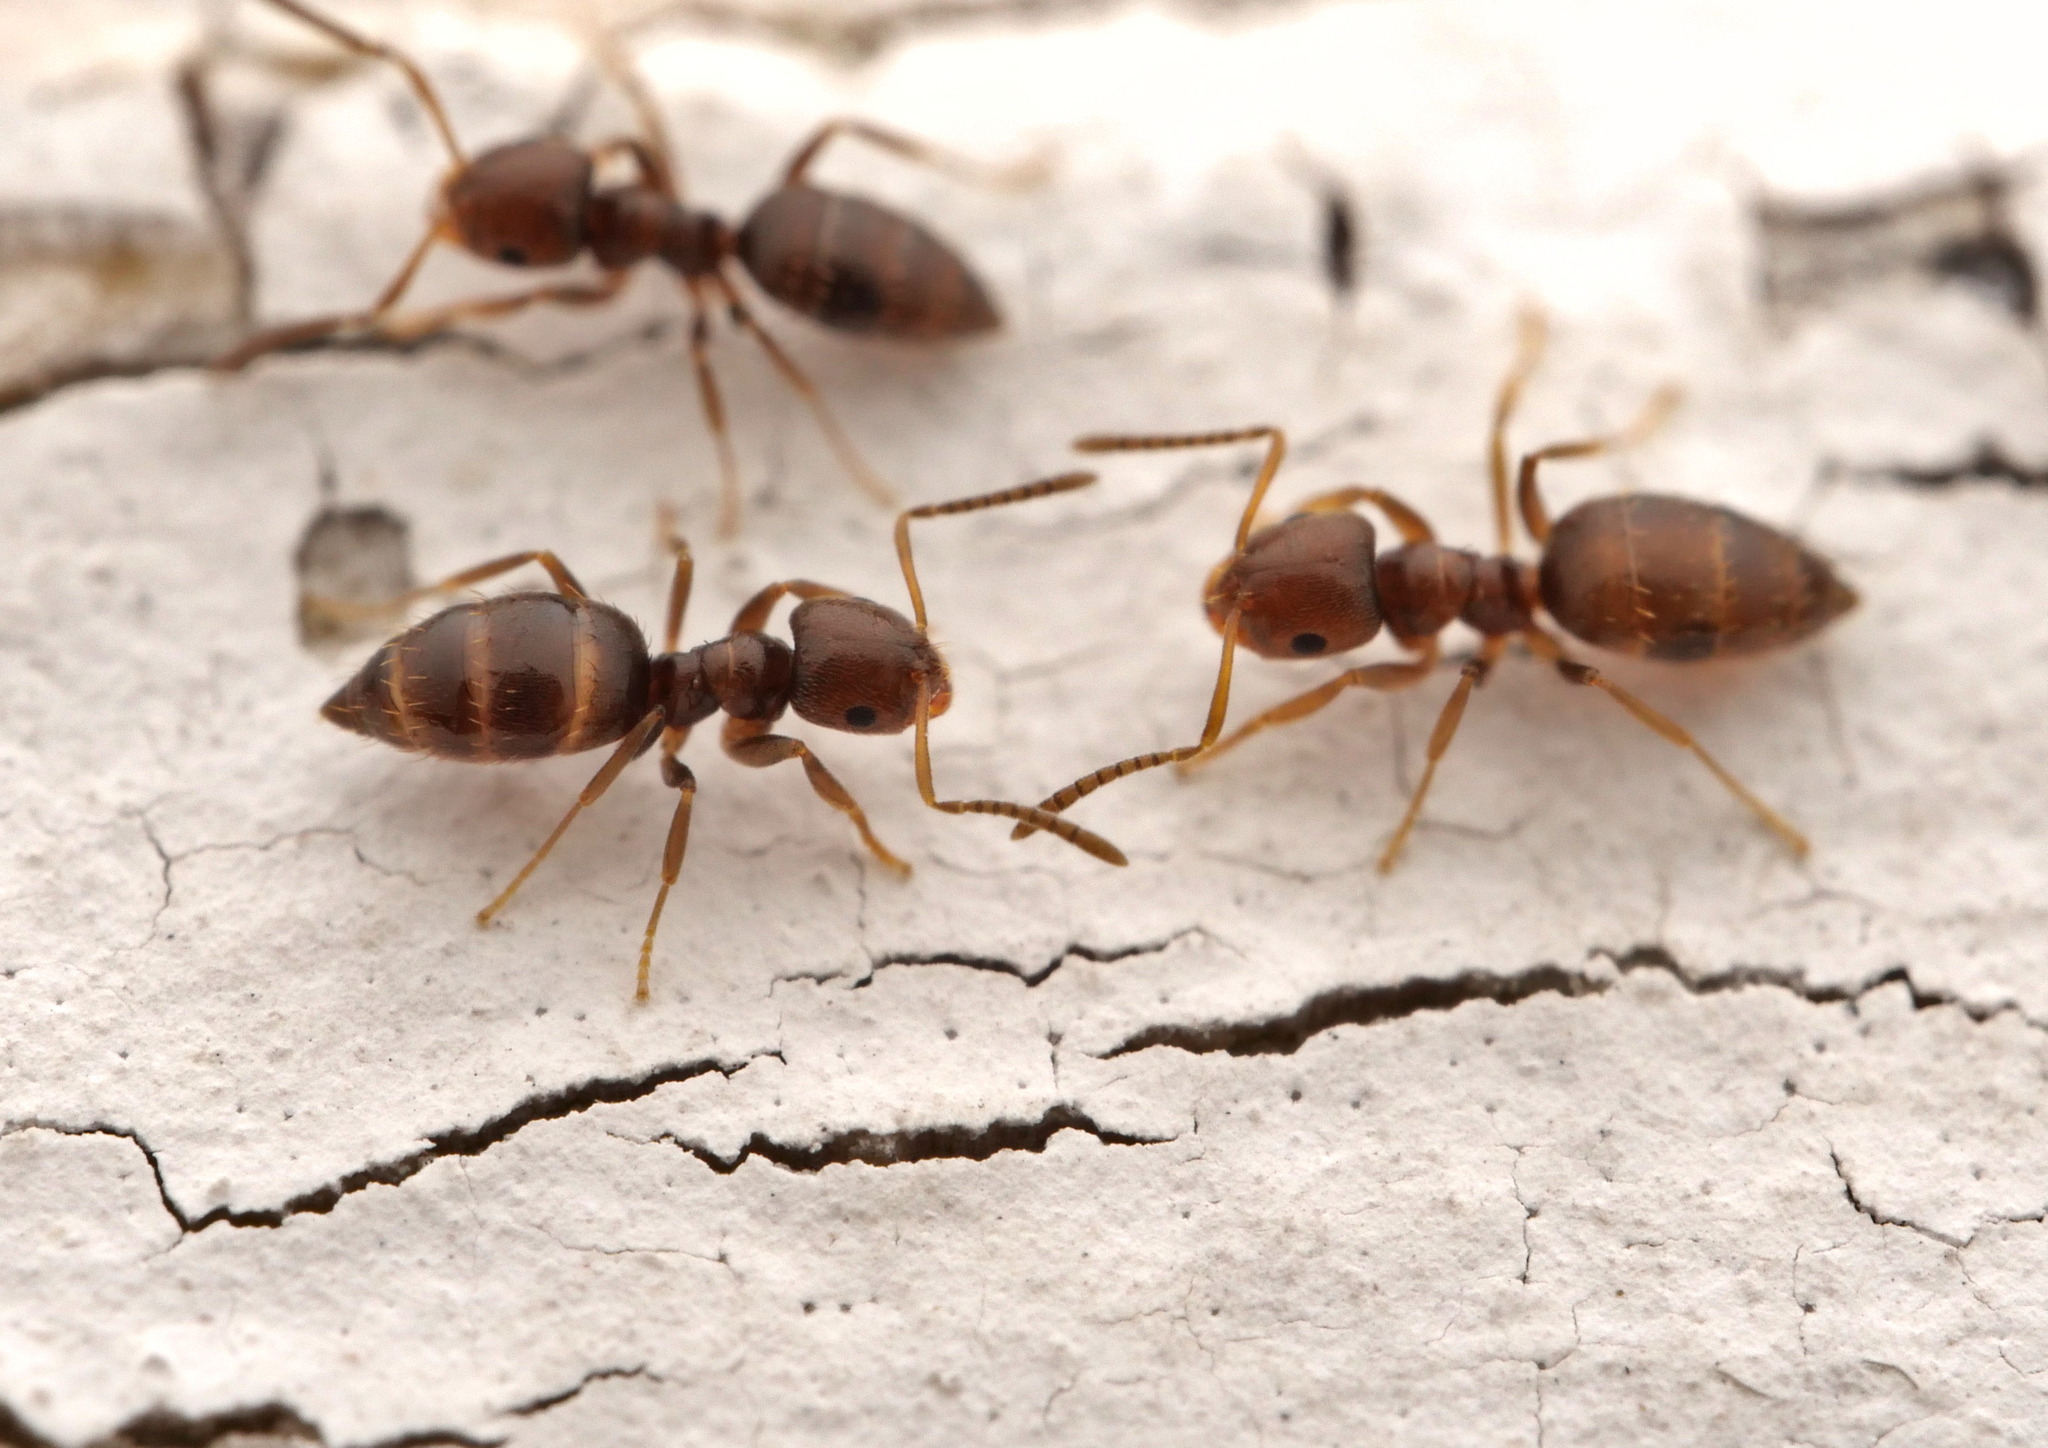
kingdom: Animalia
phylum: Arthropoda
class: Insecta
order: Hymenoptera
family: Formicidae
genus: Brachymyrmex
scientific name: Brachymyrmex obscurior
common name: Obscure rover ant
